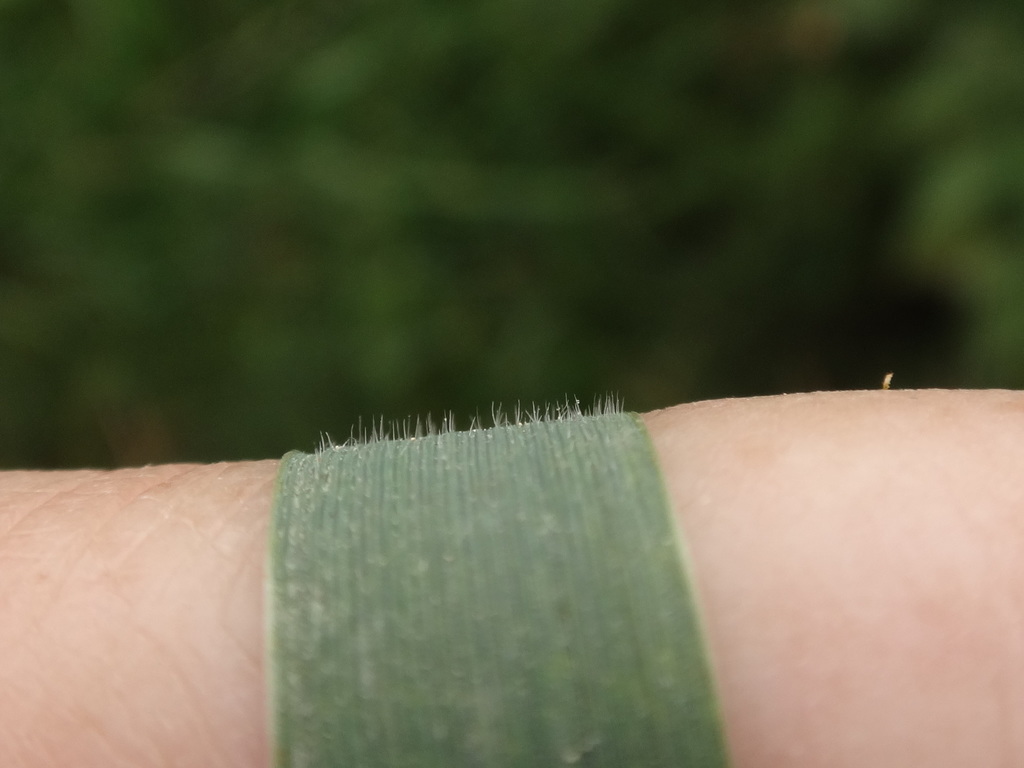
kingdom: Plantae
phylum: Tracheophyta
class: Liliopsida
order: Poales
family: Poaceae
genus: Elymus
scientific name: Elymus repens
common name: Quackgrass
